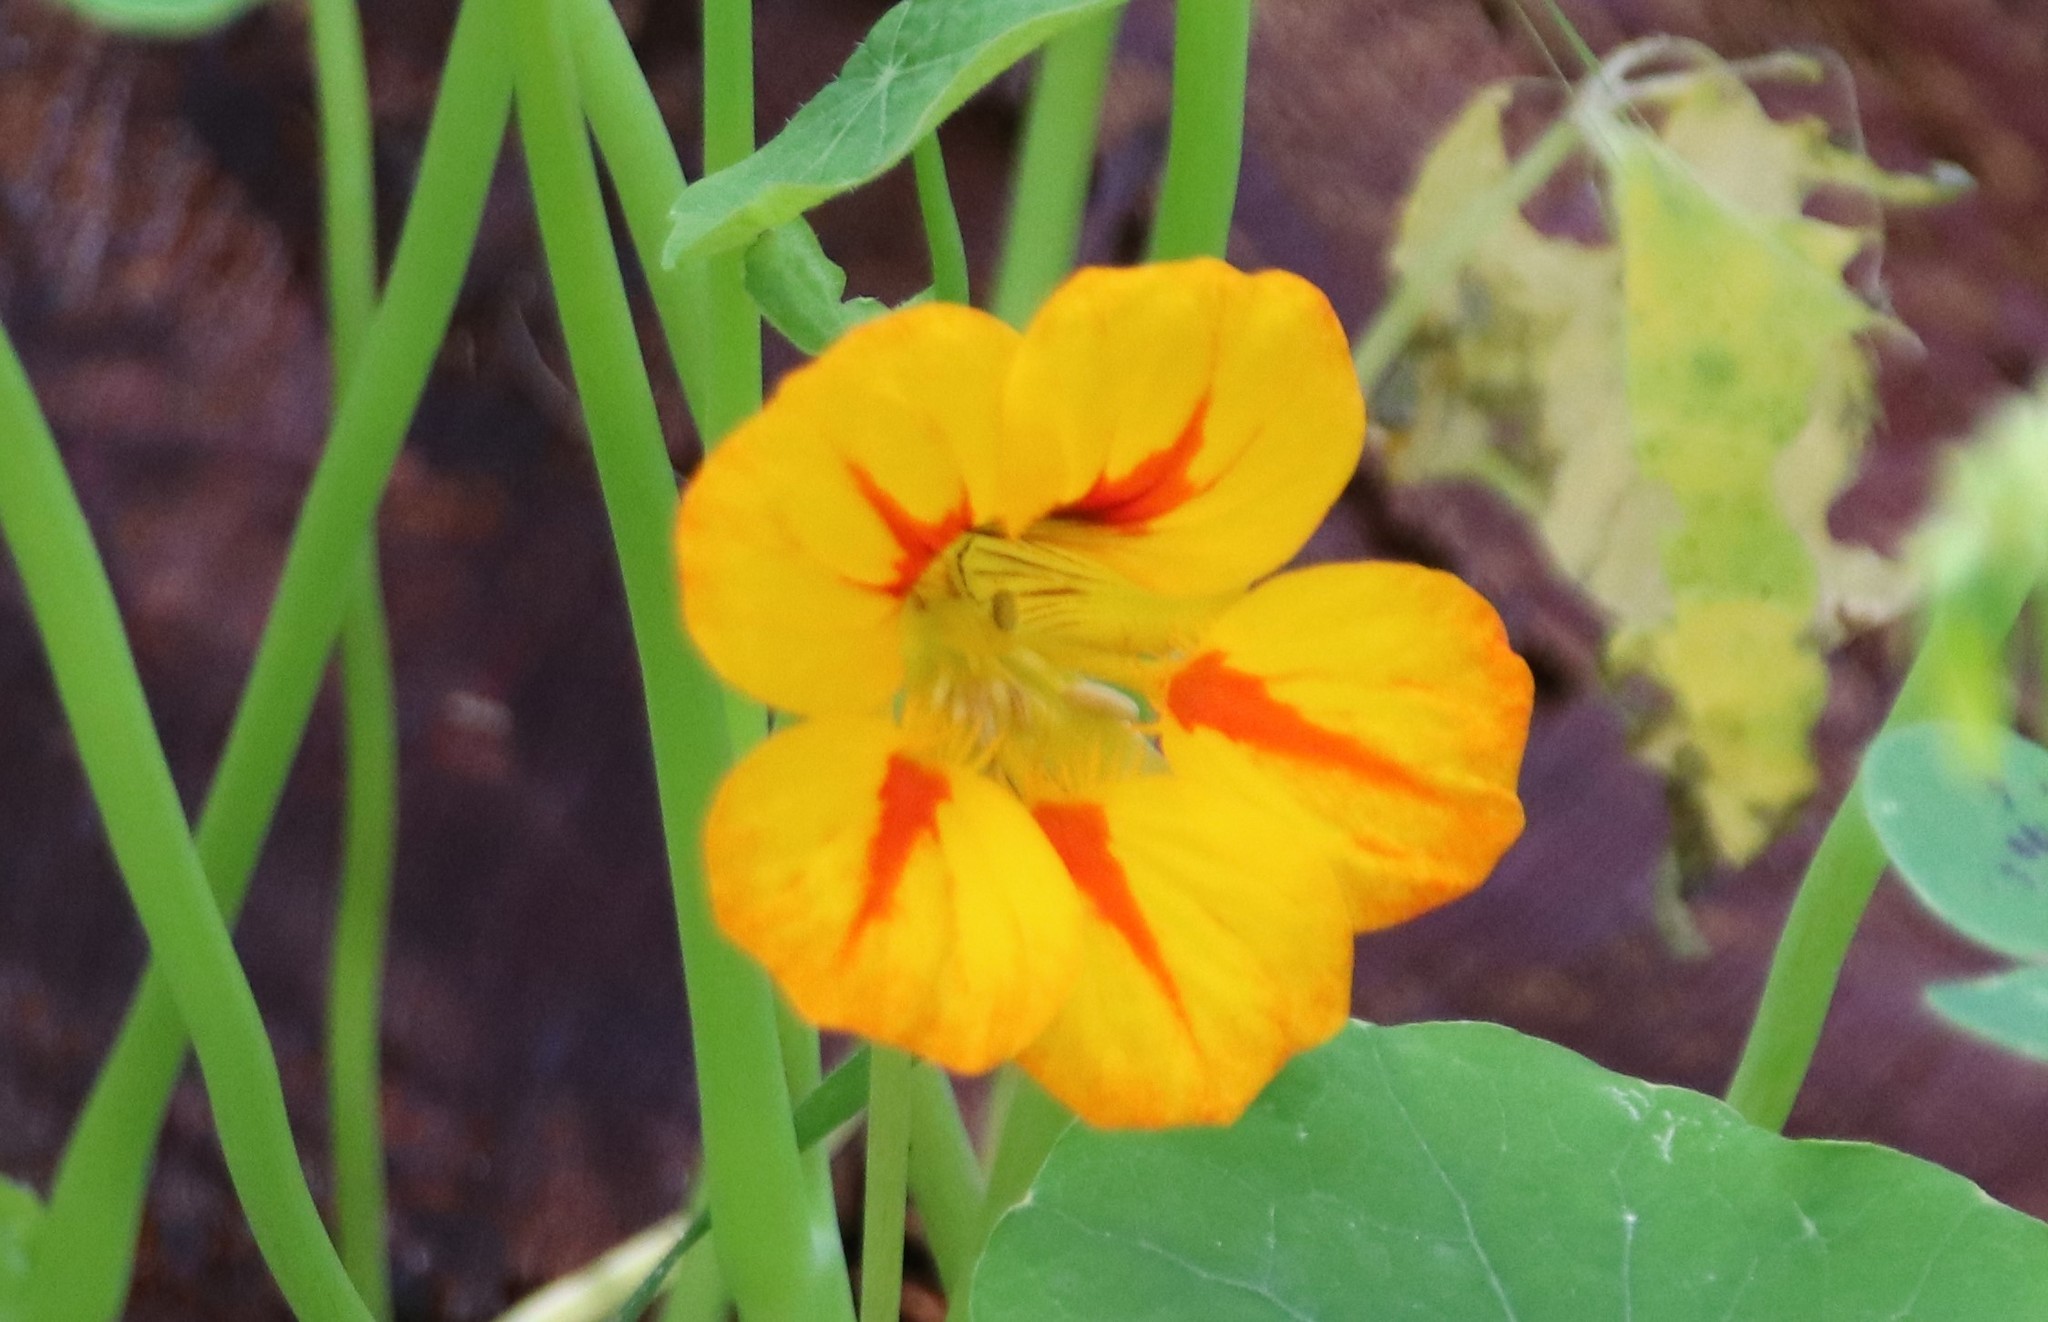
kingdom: Plantae
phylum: Tracheophyta
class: Magnoliopsida
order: Brassicales
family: Tropaeolaceae
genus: Tropaeolum
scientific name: Tropaeolum majus
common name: Nasturtium
